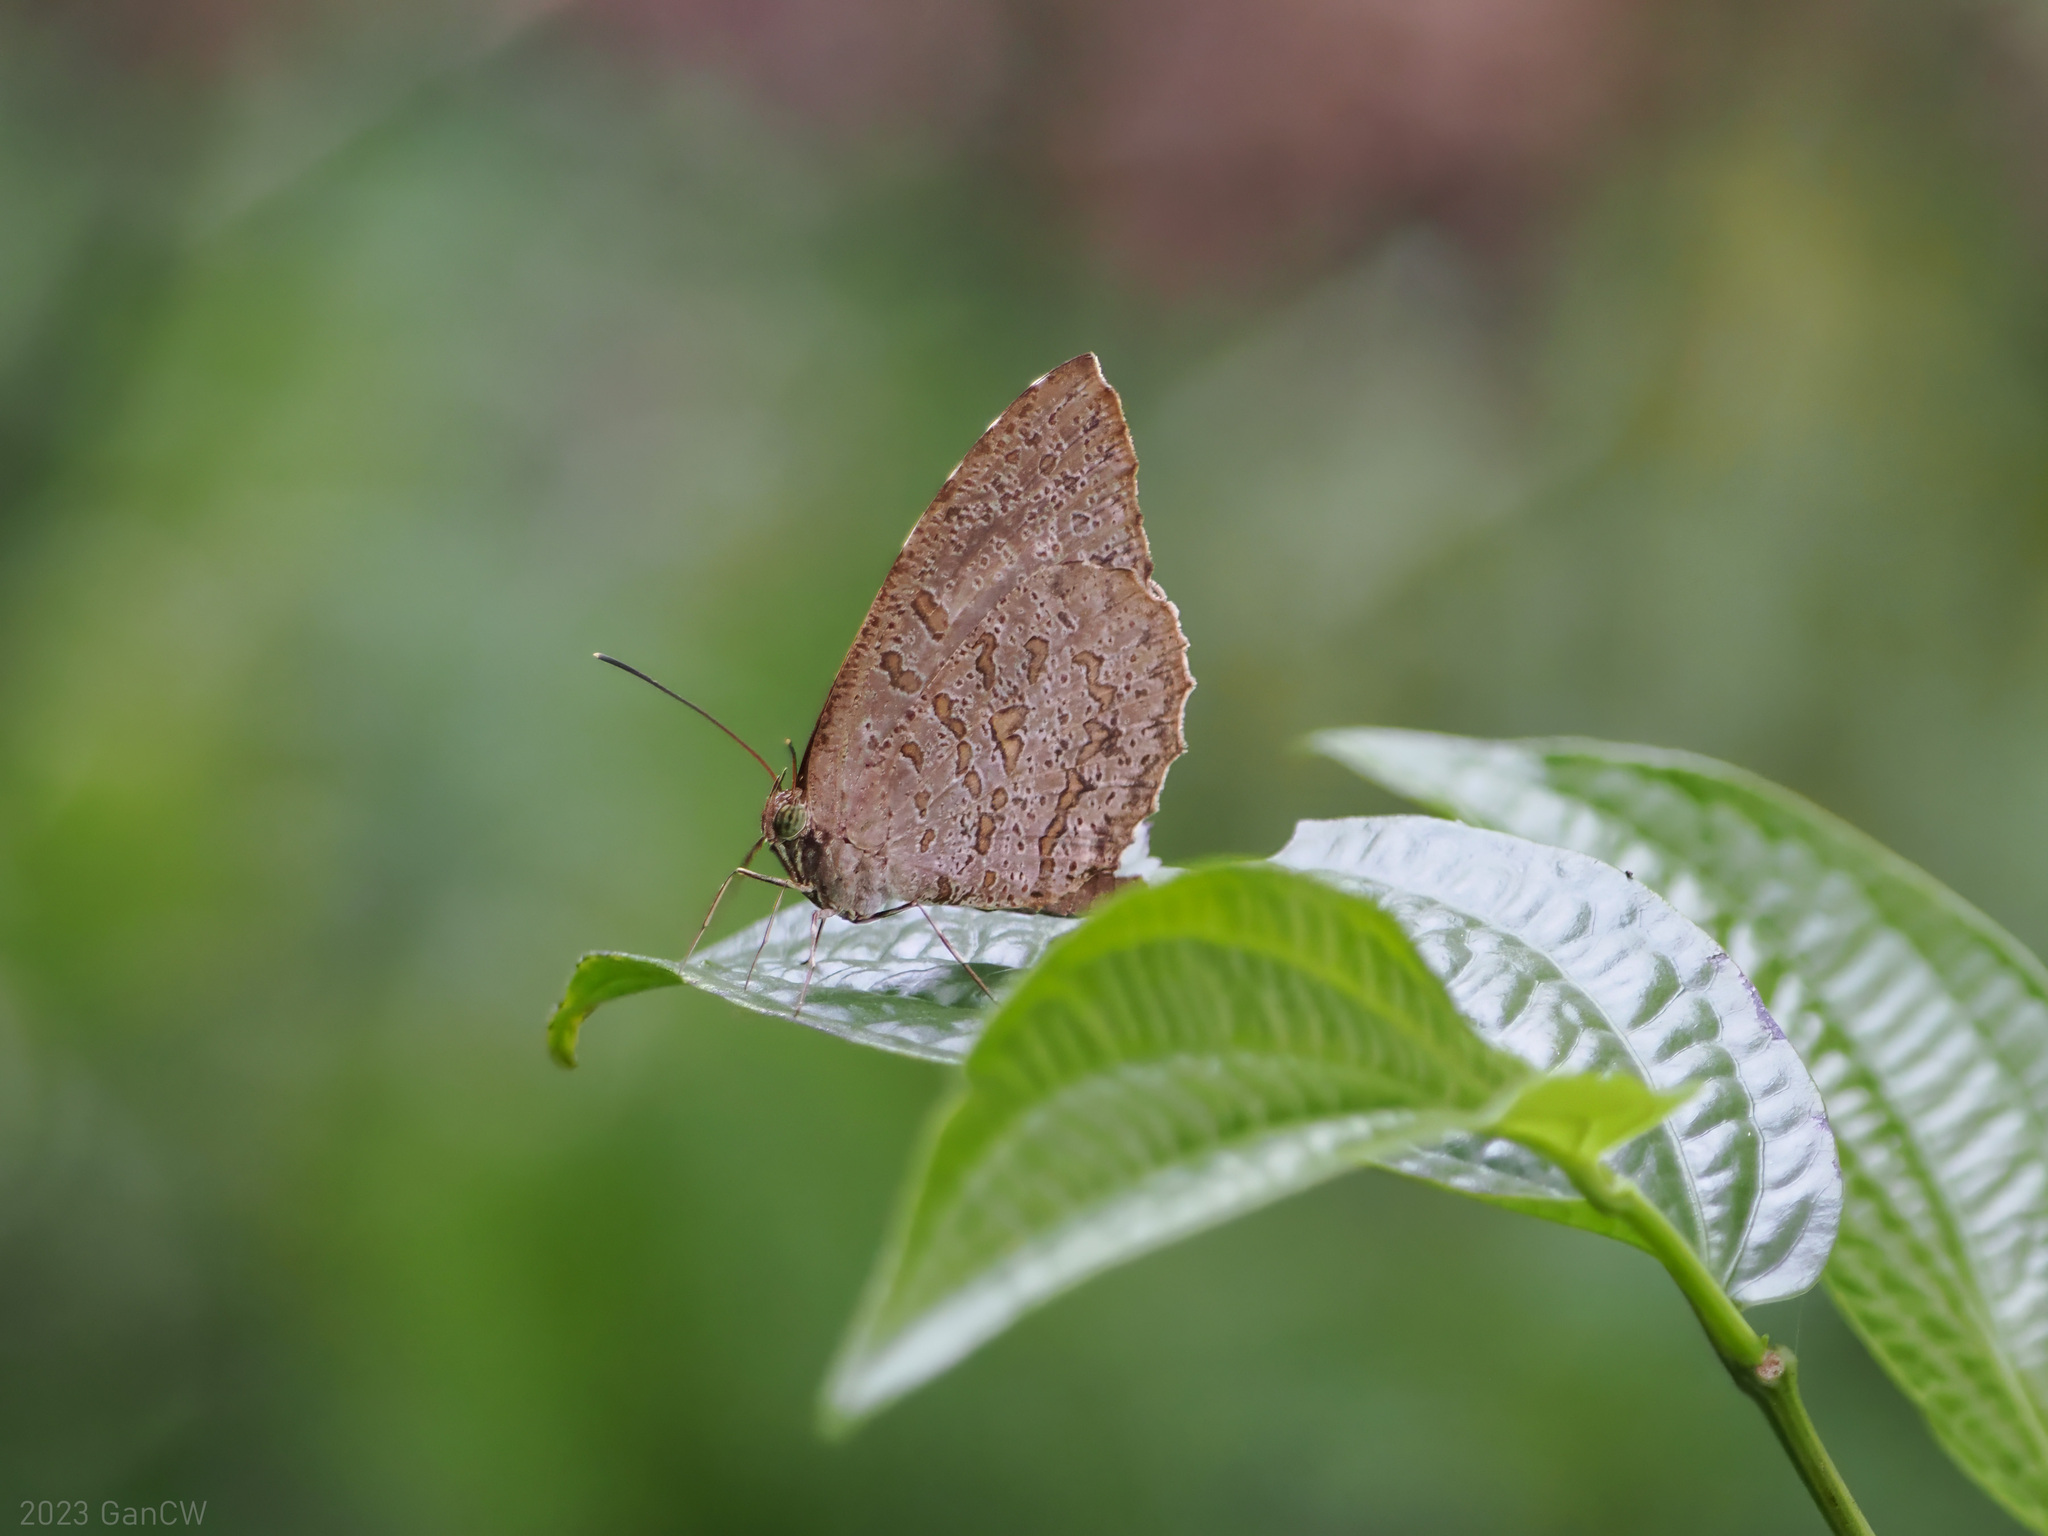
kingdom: Animalia
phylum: Arthropoda
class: Insecta
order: Lepidoptera
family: Lycaenidae
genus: Allotinus
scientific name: Allotinus drumila
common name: Crenulate darkie
